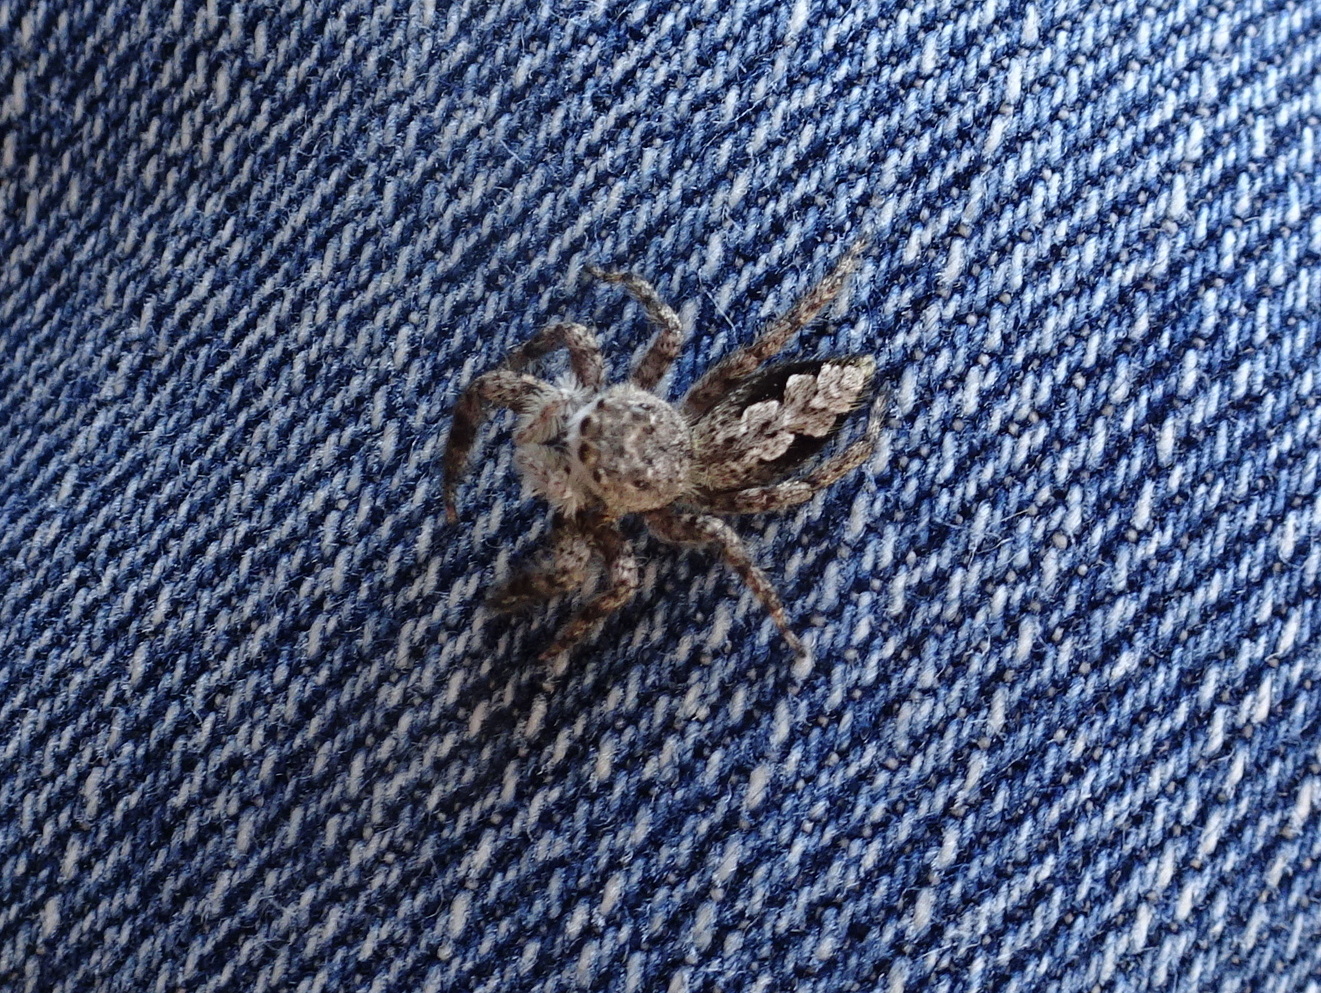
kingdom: Animalia
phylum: Arthropoda
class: Arachnida
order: Araneae
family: Salticidae
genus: Platycryptus
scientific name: Platycryptus undatus
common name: Tan jumping spider
